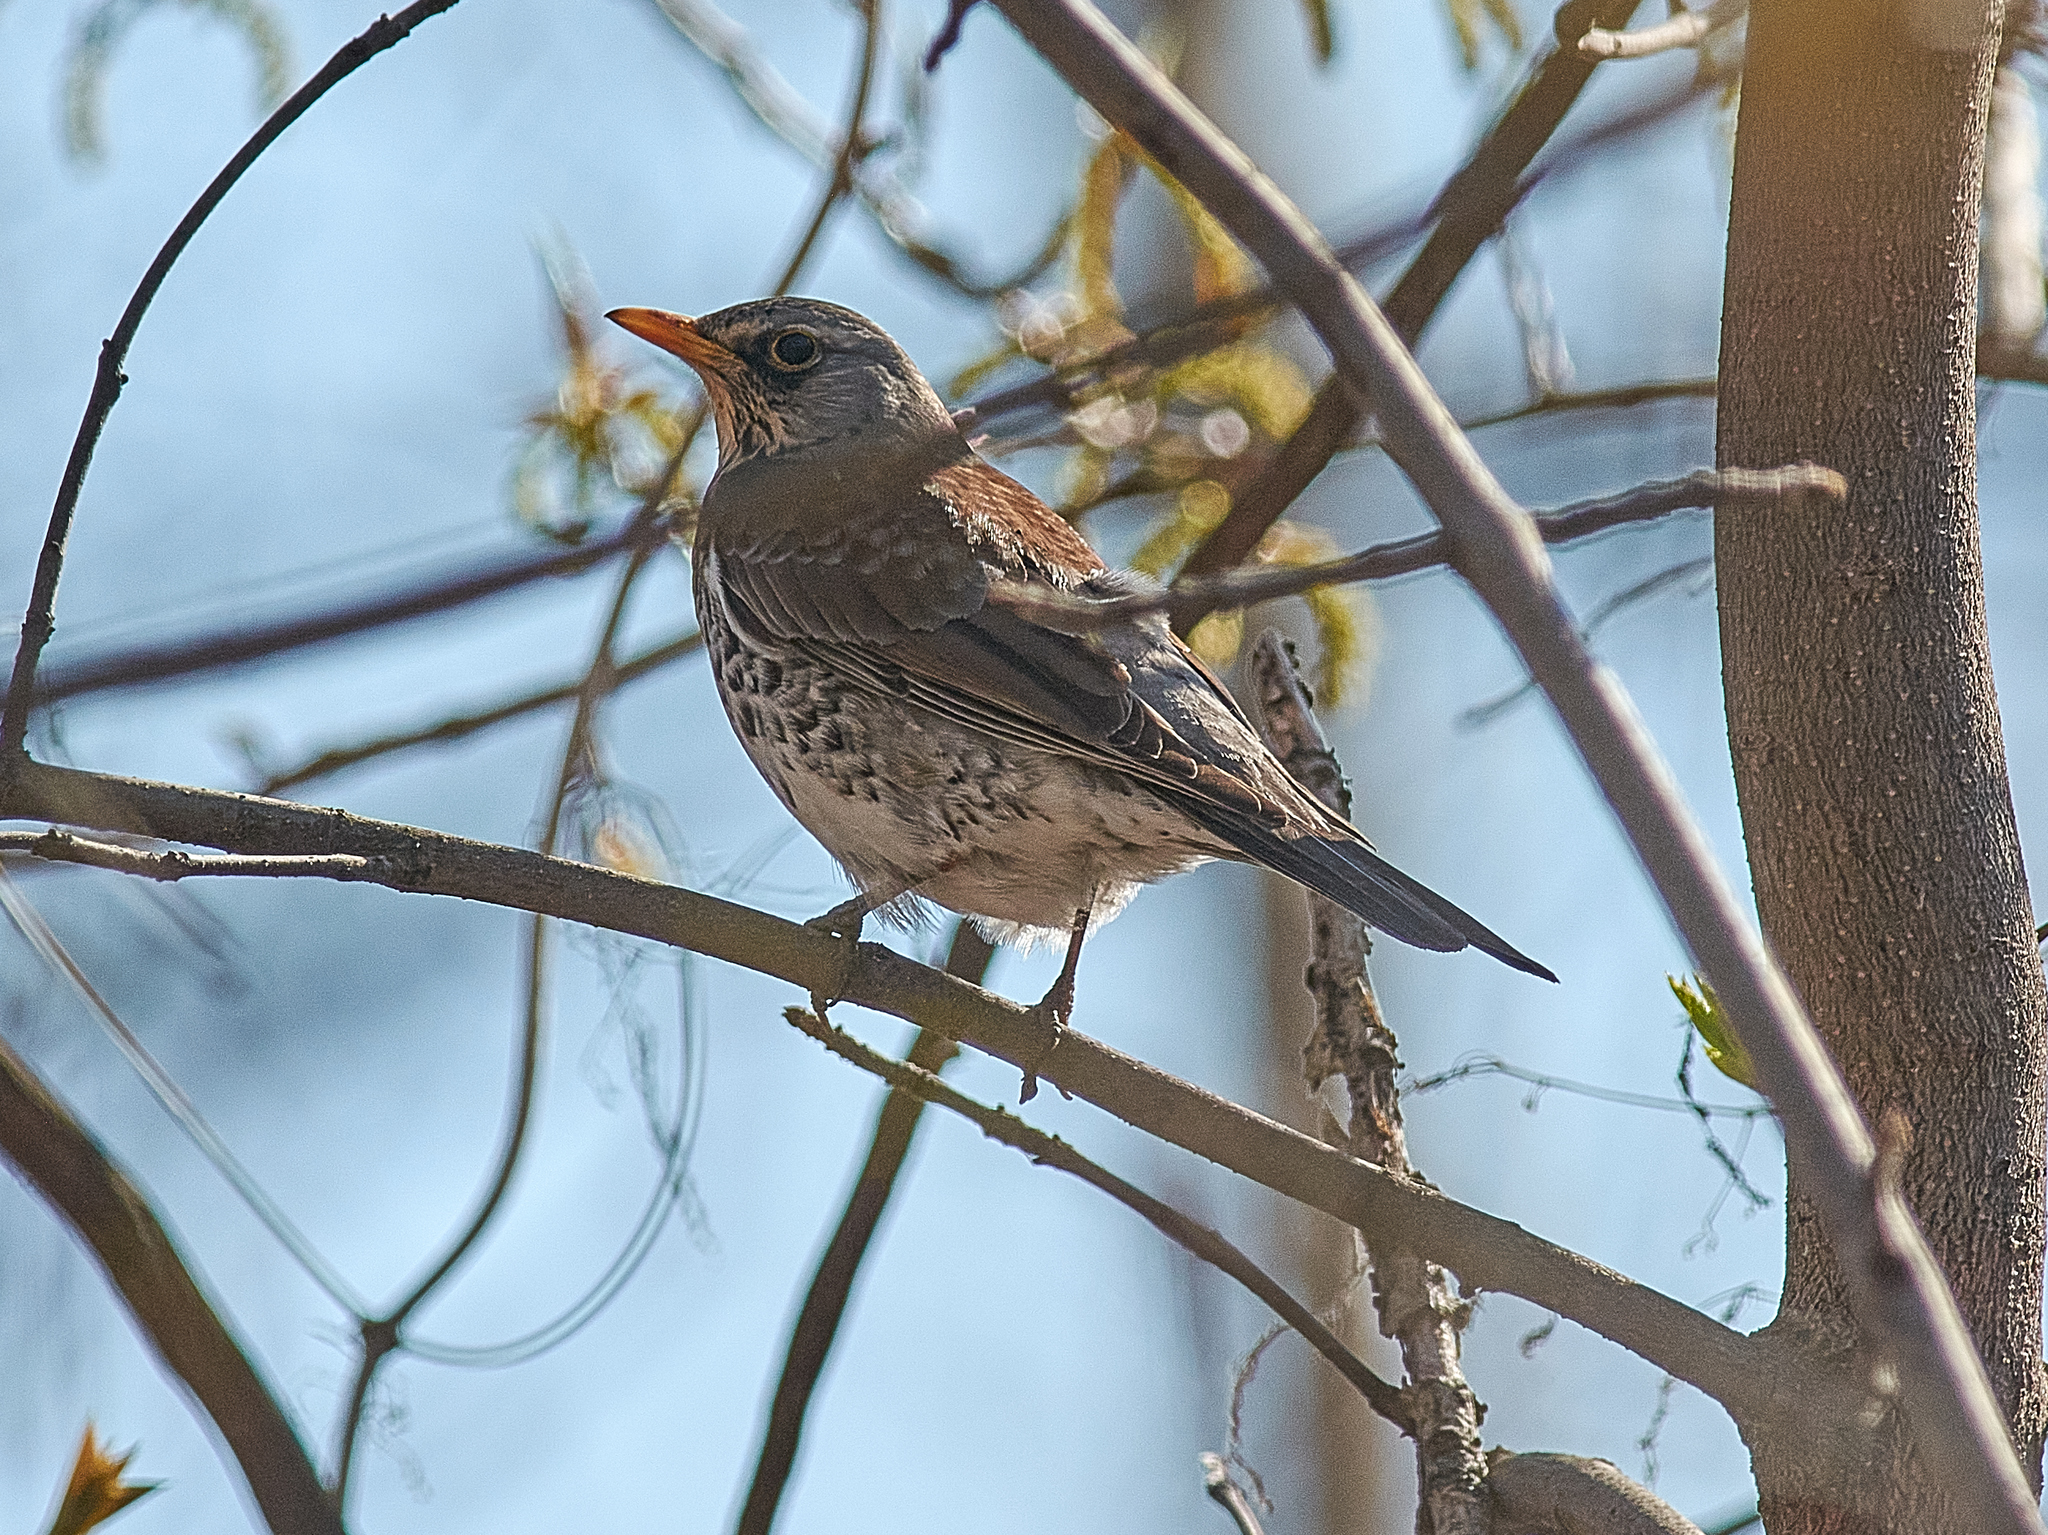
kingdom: Animalia
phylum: Chordata
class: Aves
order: Passeriformes
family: Turdidae
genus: Turdus
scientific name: Turdus pilaris
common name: Fieldfare
